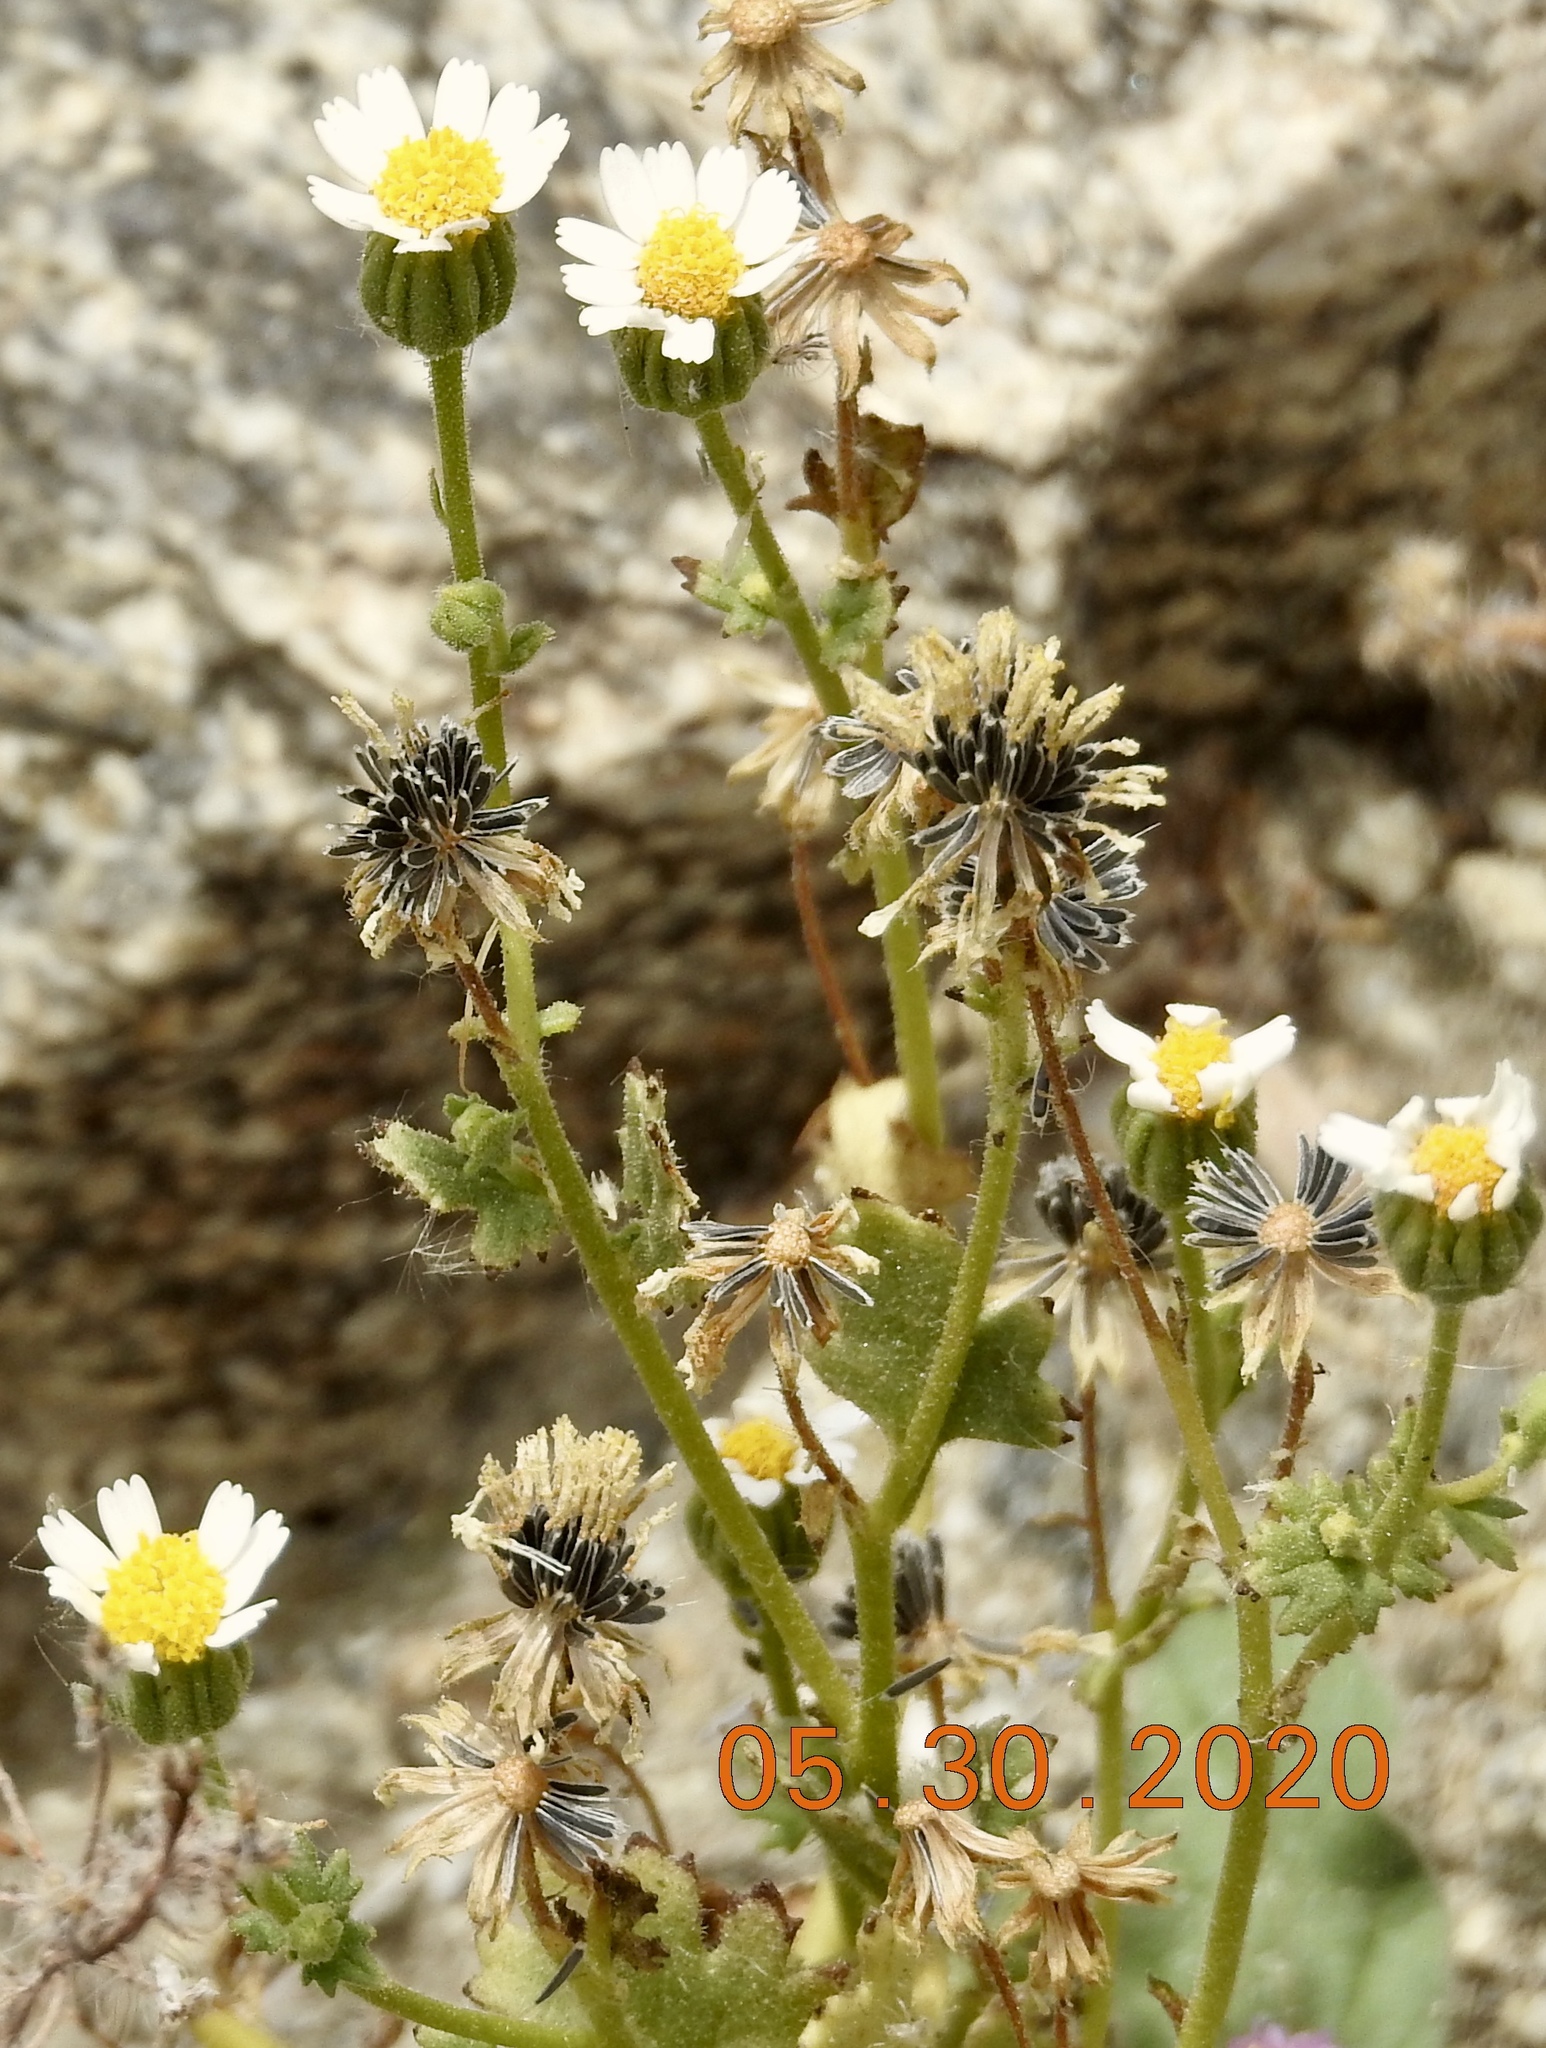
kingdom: Plantae
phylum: Tracheophyta
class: Magnoliopsida
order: Asterales
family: Asteraceae
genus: Laphamia
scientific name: Laphamia emoryi
